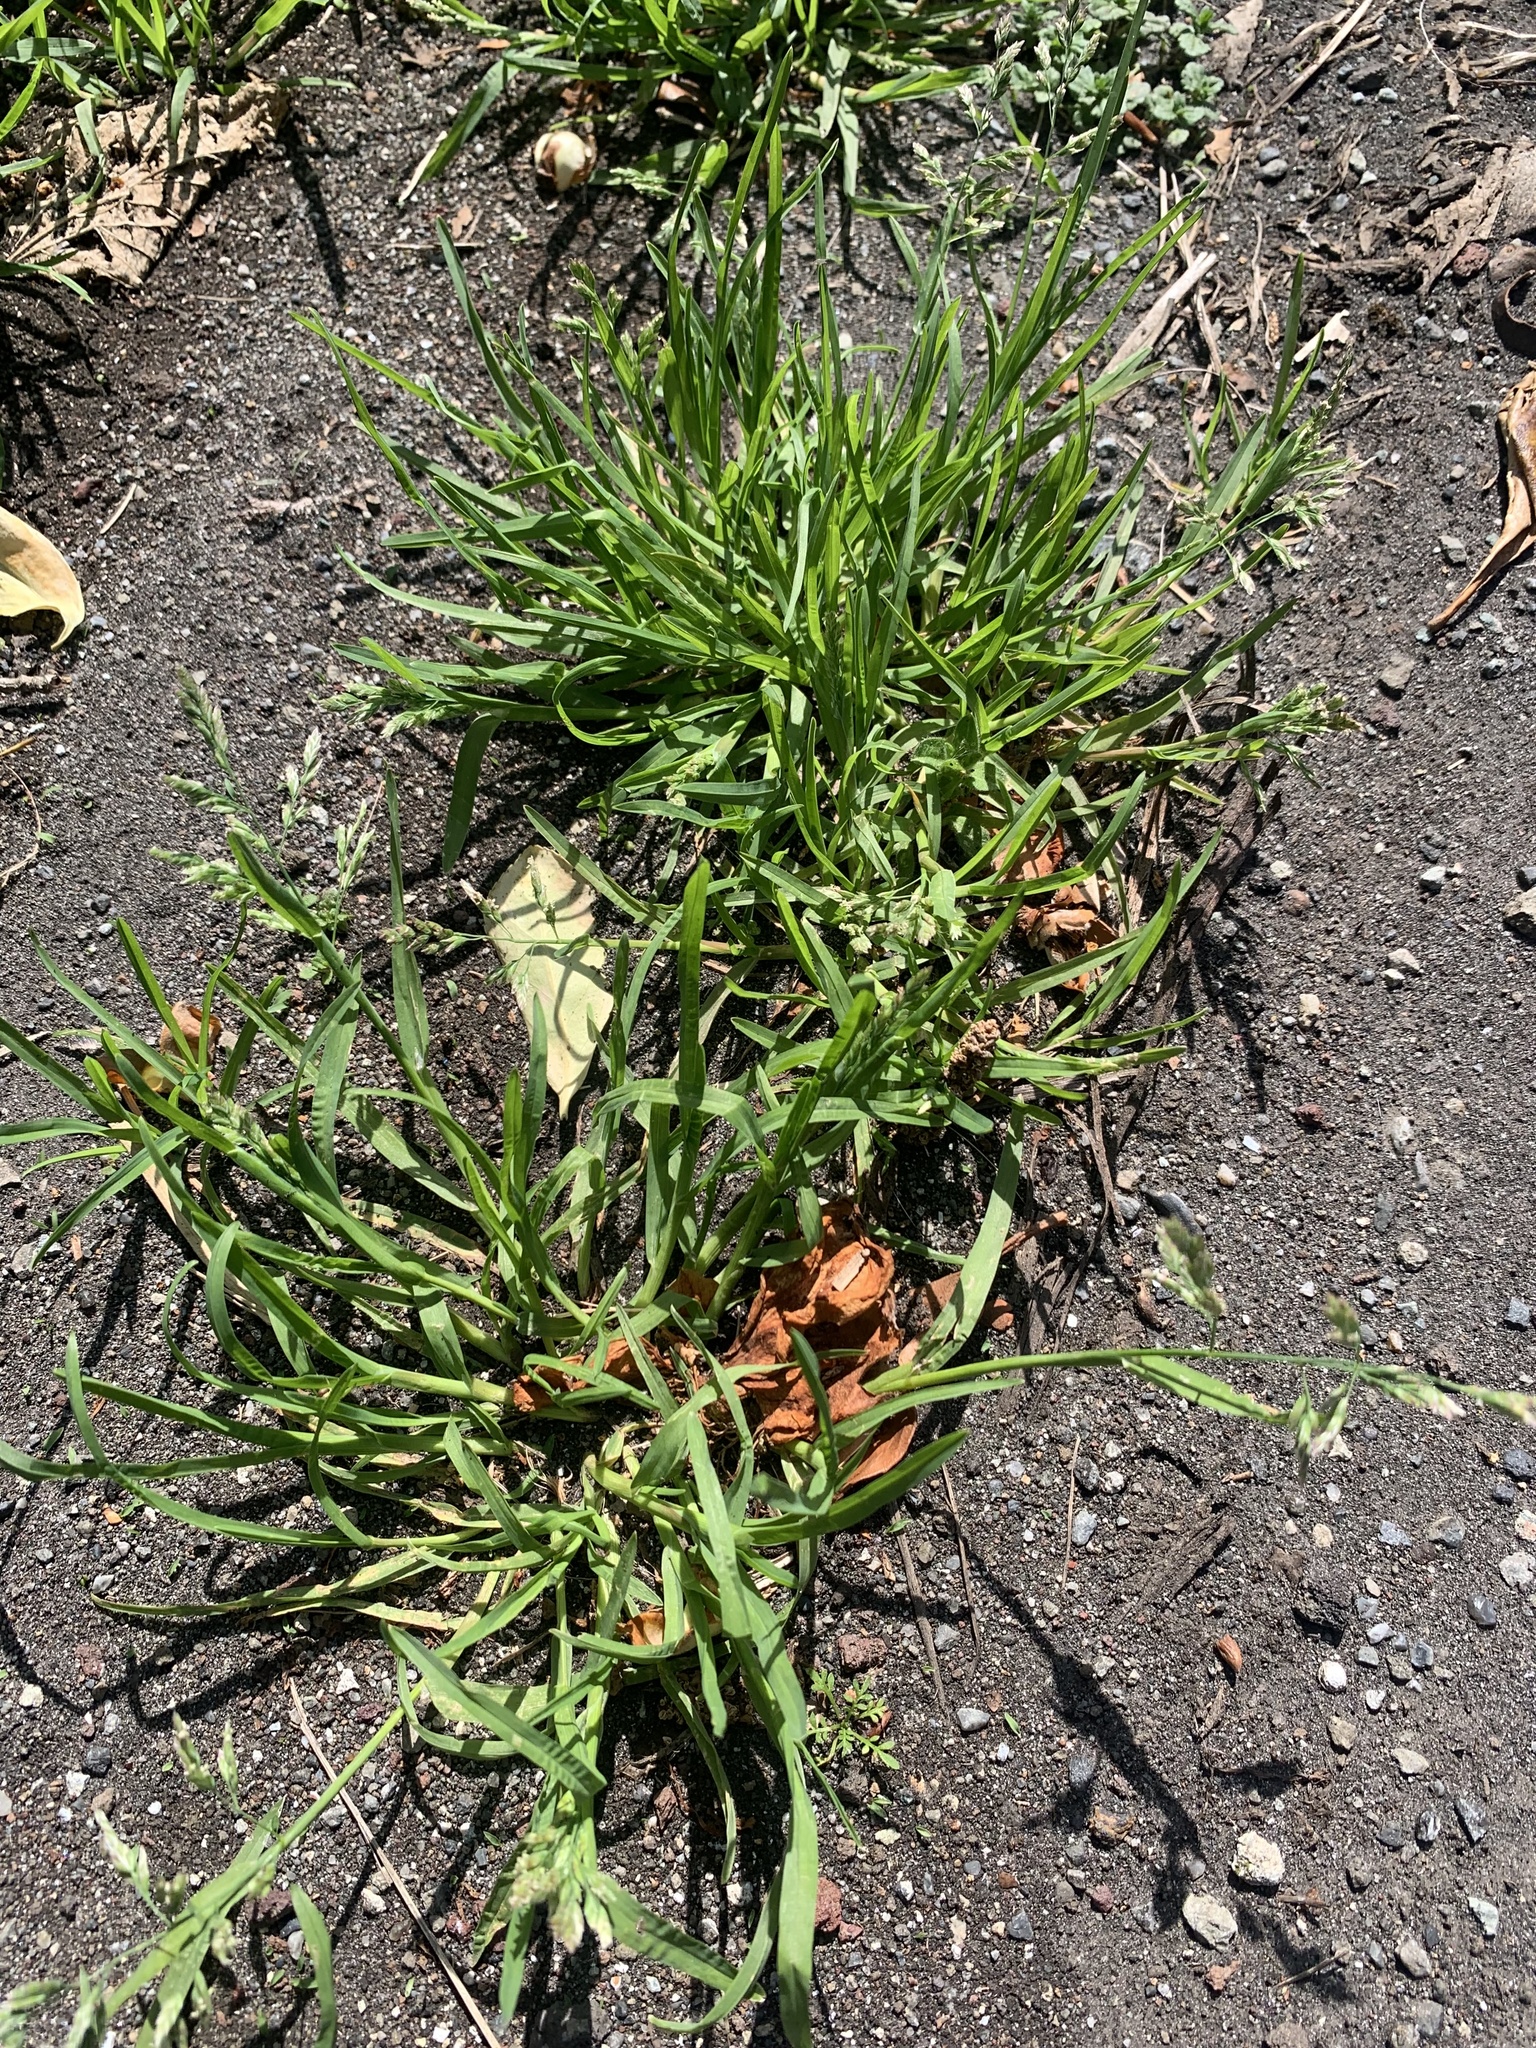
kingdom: Plantae
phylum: Tracheophyta
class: Liliopsida
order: Poales
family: Poaceae
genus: Poa
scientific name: Poa annua
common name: Annual bluegrass
